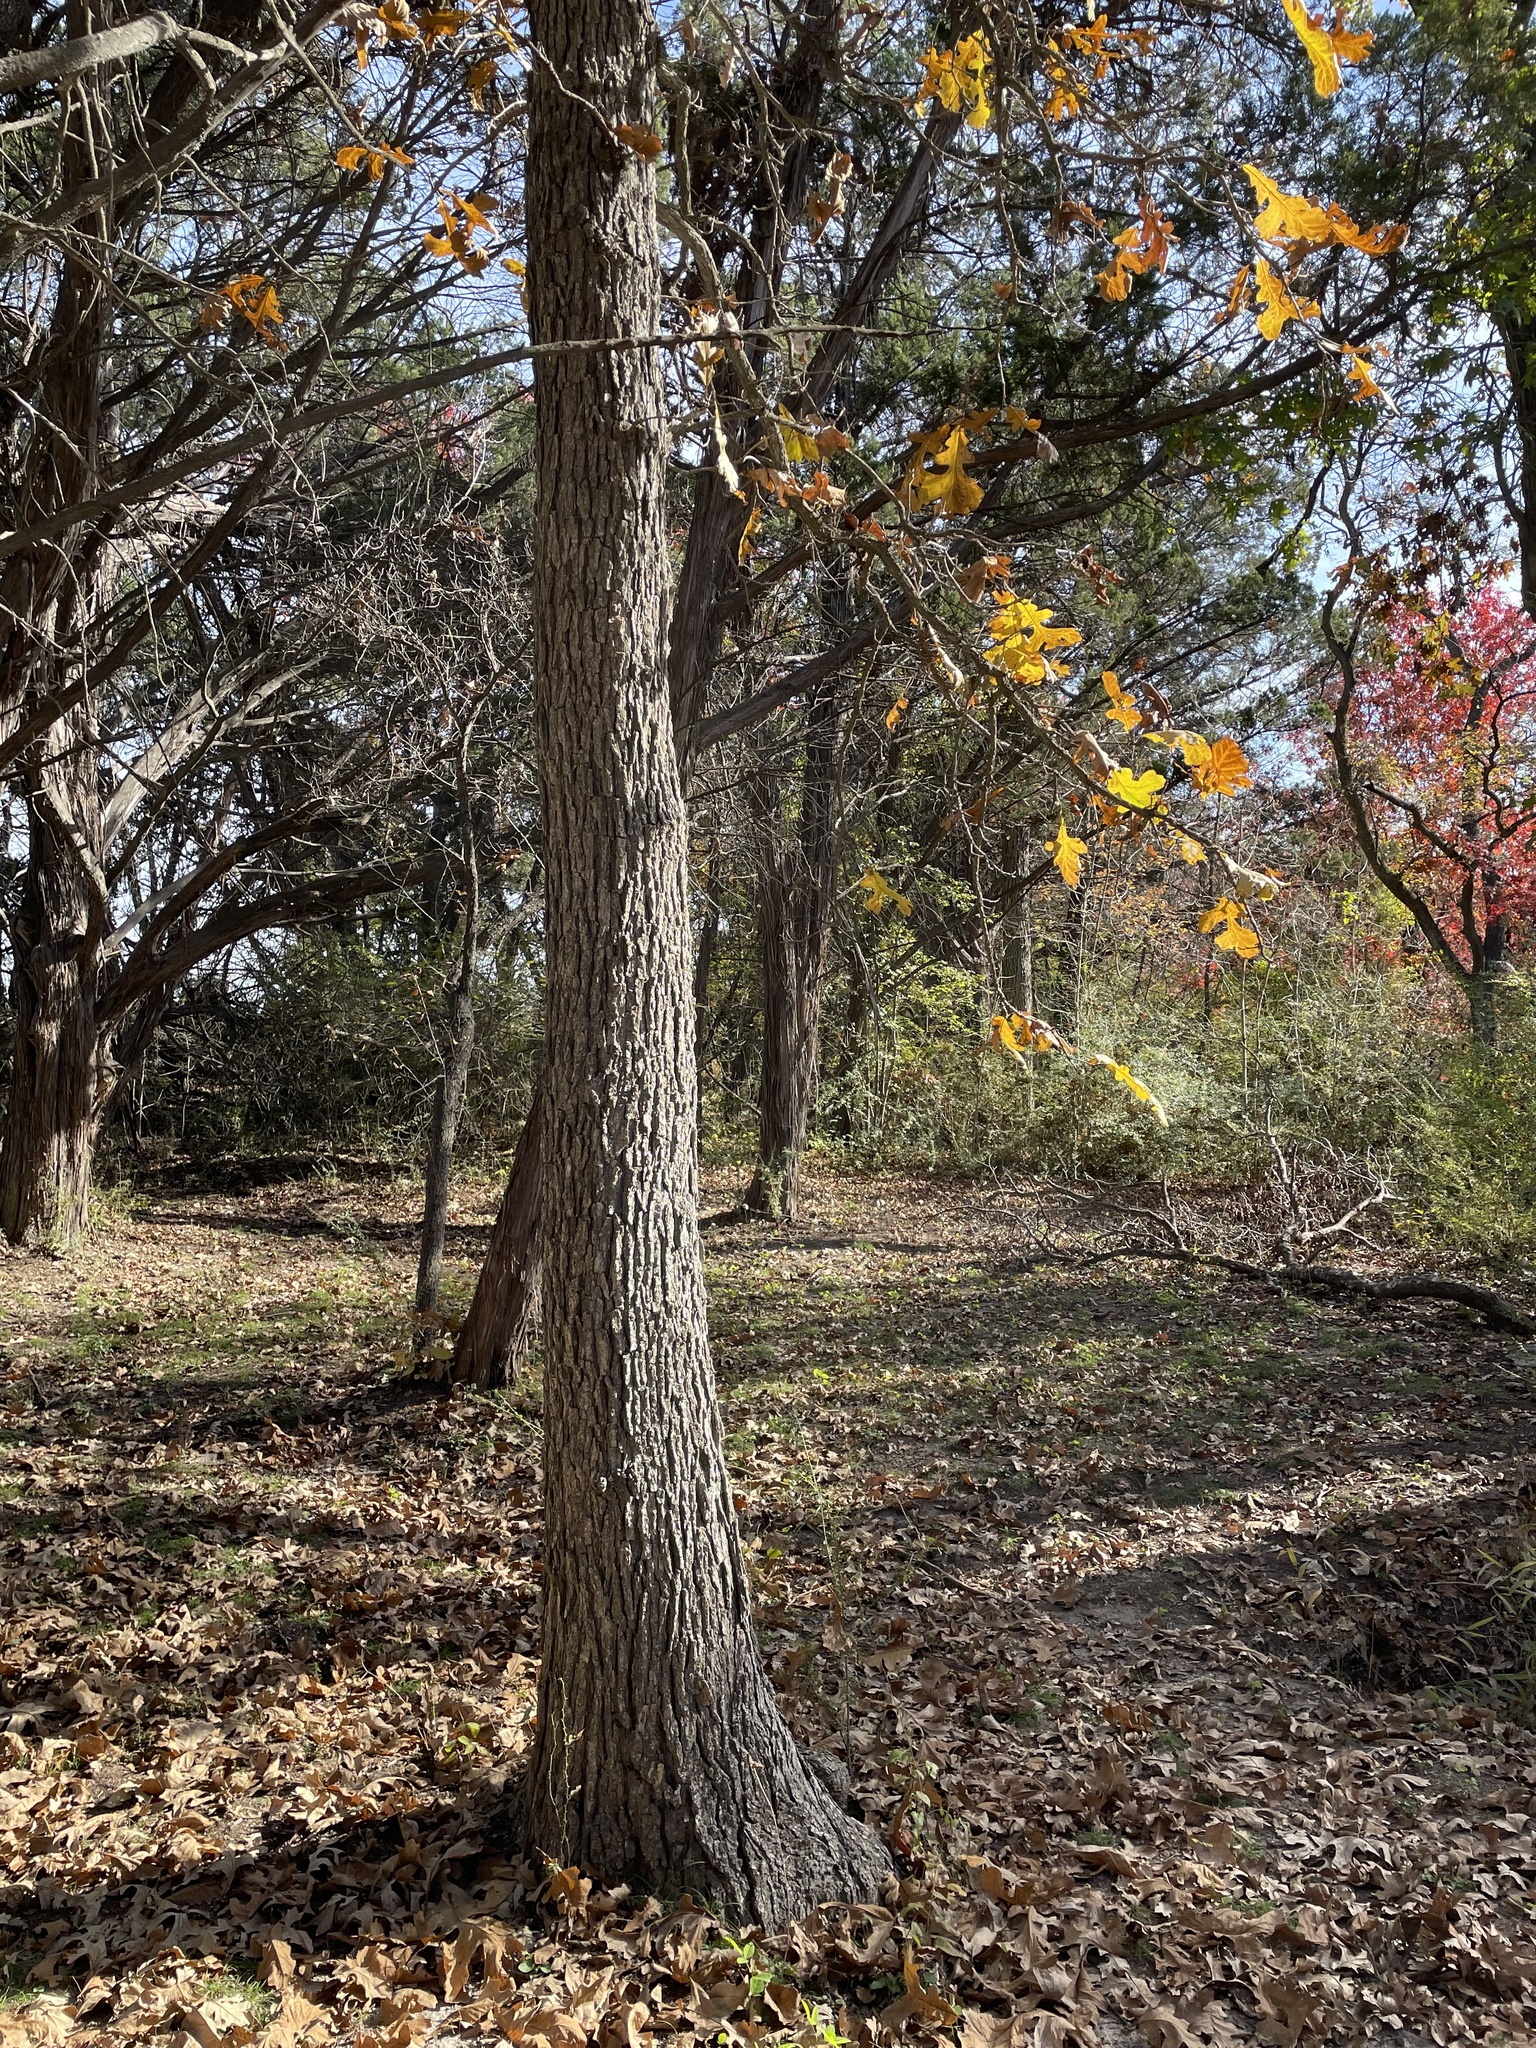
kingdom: Plantae
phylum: Tracheophyta
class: Magnoliopsida
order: Fagales
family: Fagaceae
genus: Quercus
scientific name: Quercus macrocarpa
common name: Bur oak
